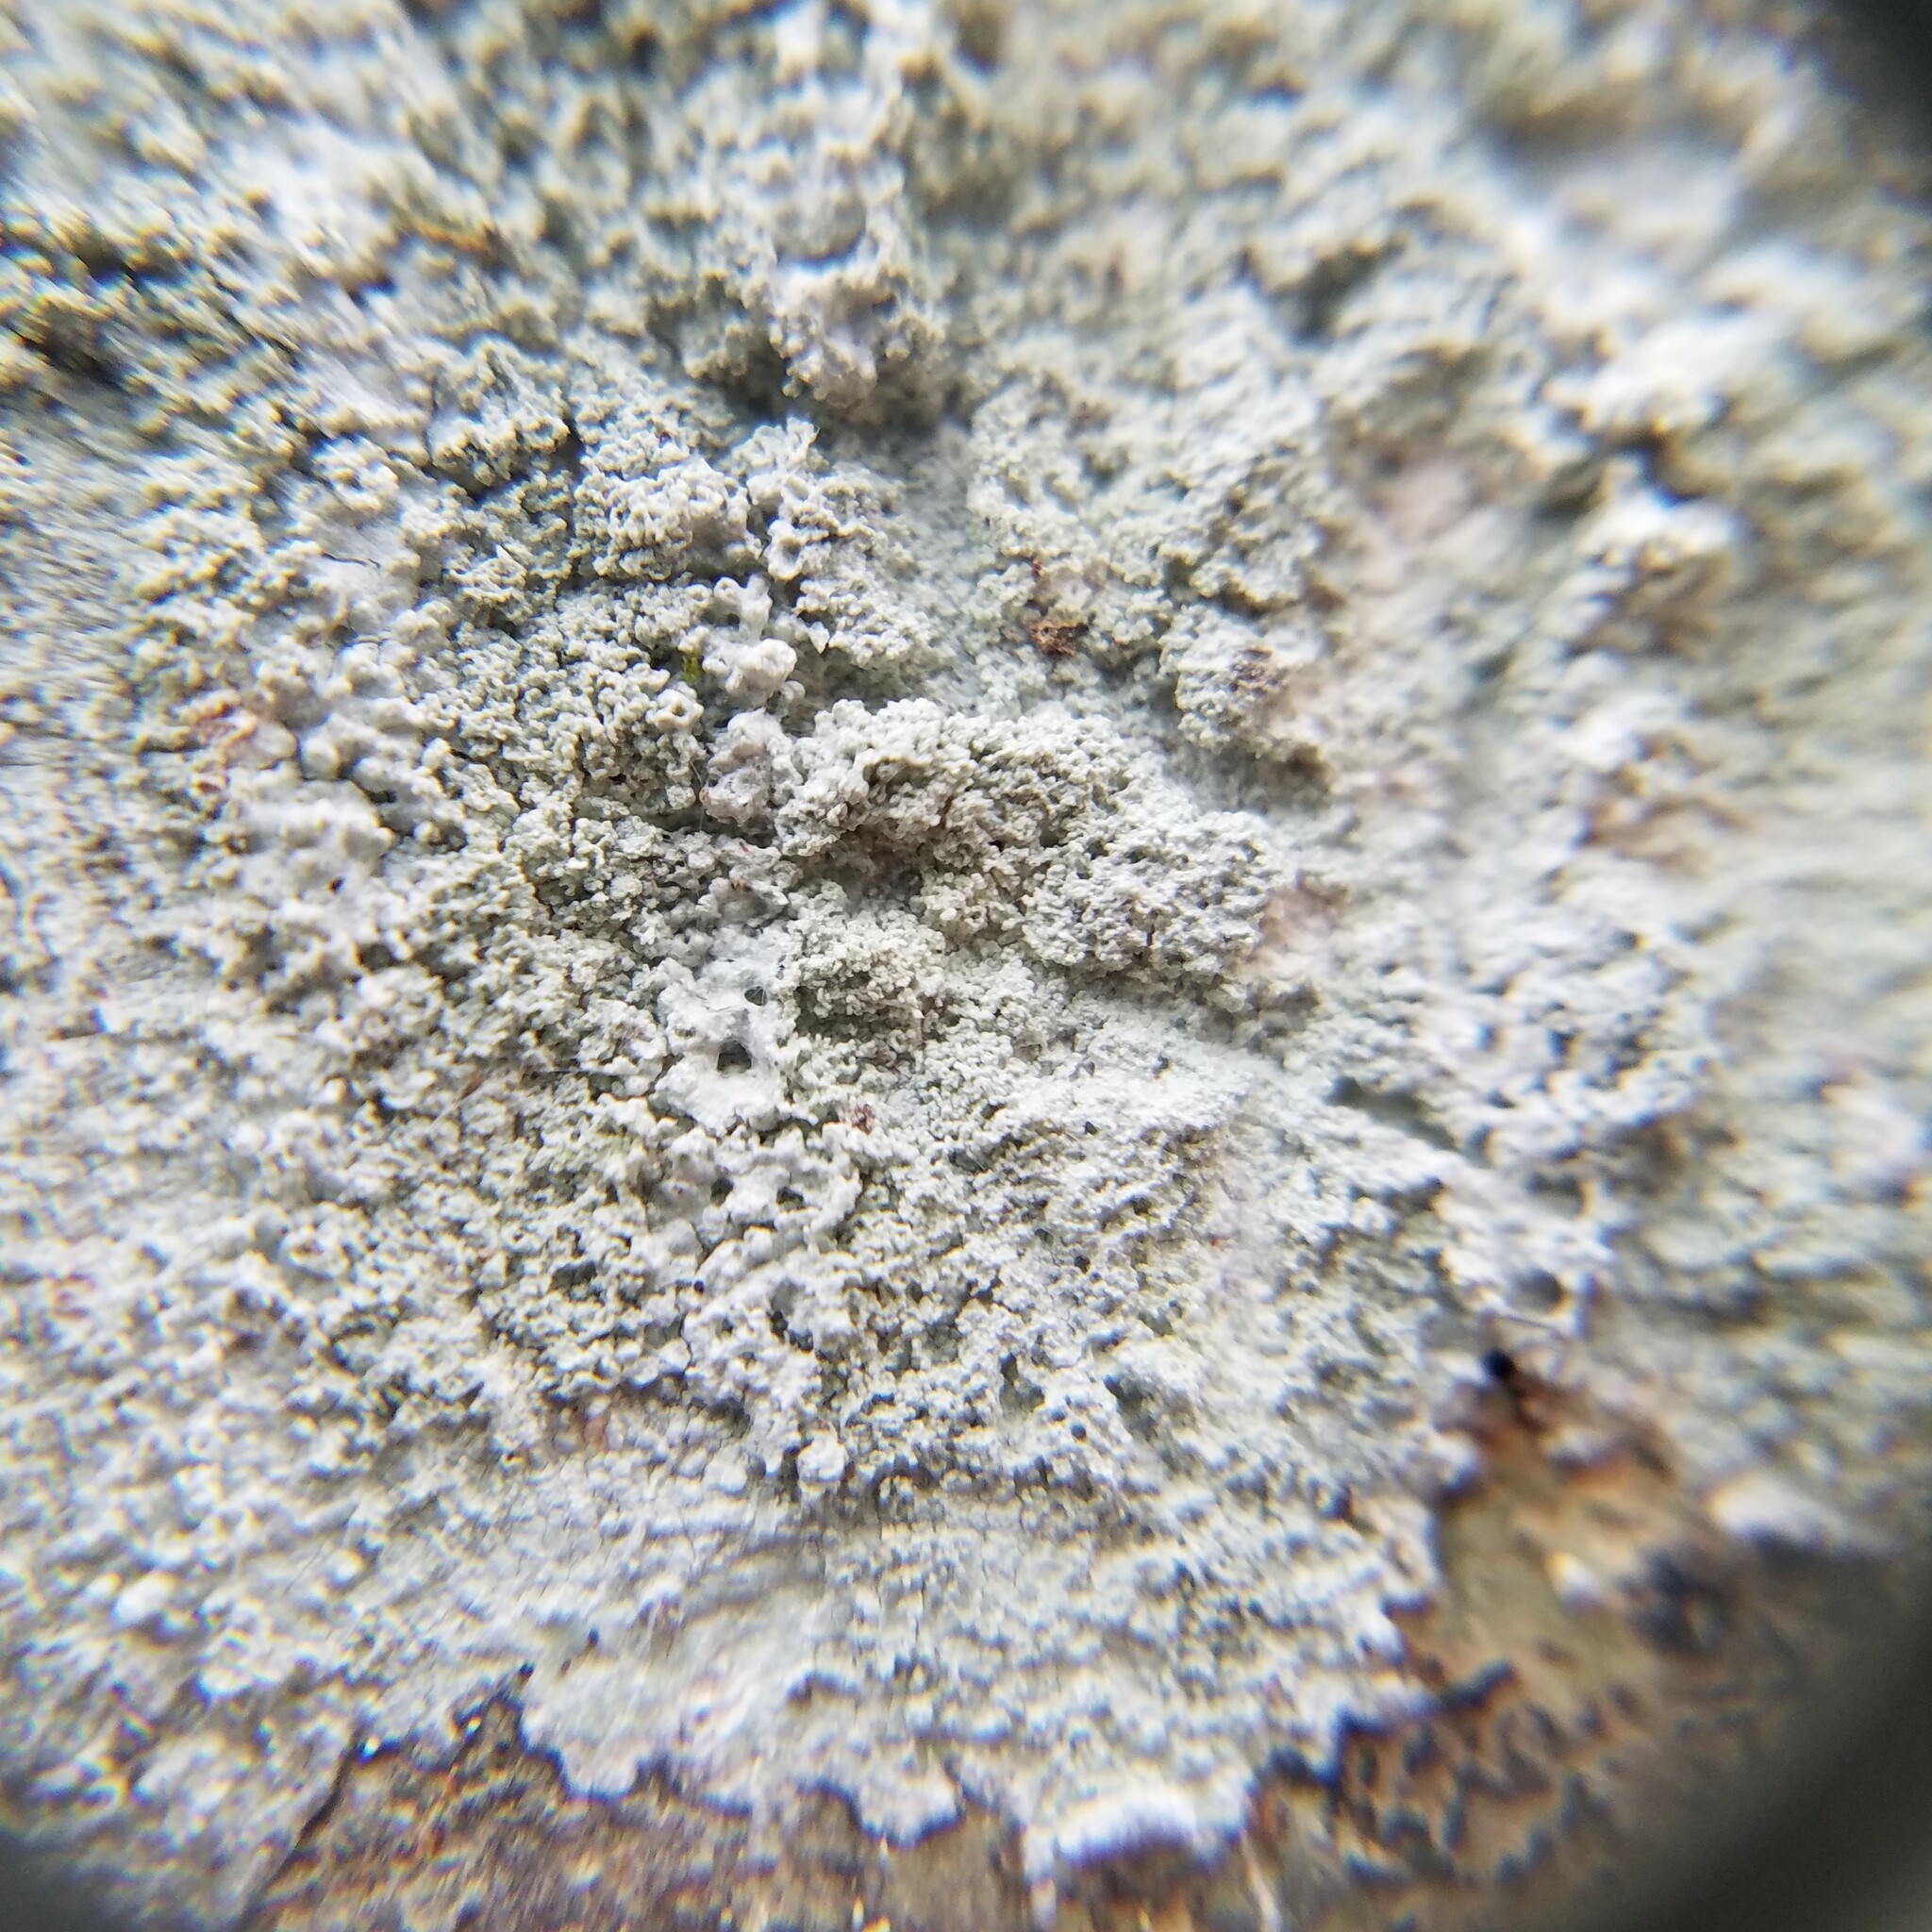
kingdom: Fungi
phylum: Ascomycota
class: Lecanoromycetes
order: Pertusariales
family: Pertusariaceae
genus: Lepra
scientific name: Lepra pustulata
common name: Pustule crust lichen
